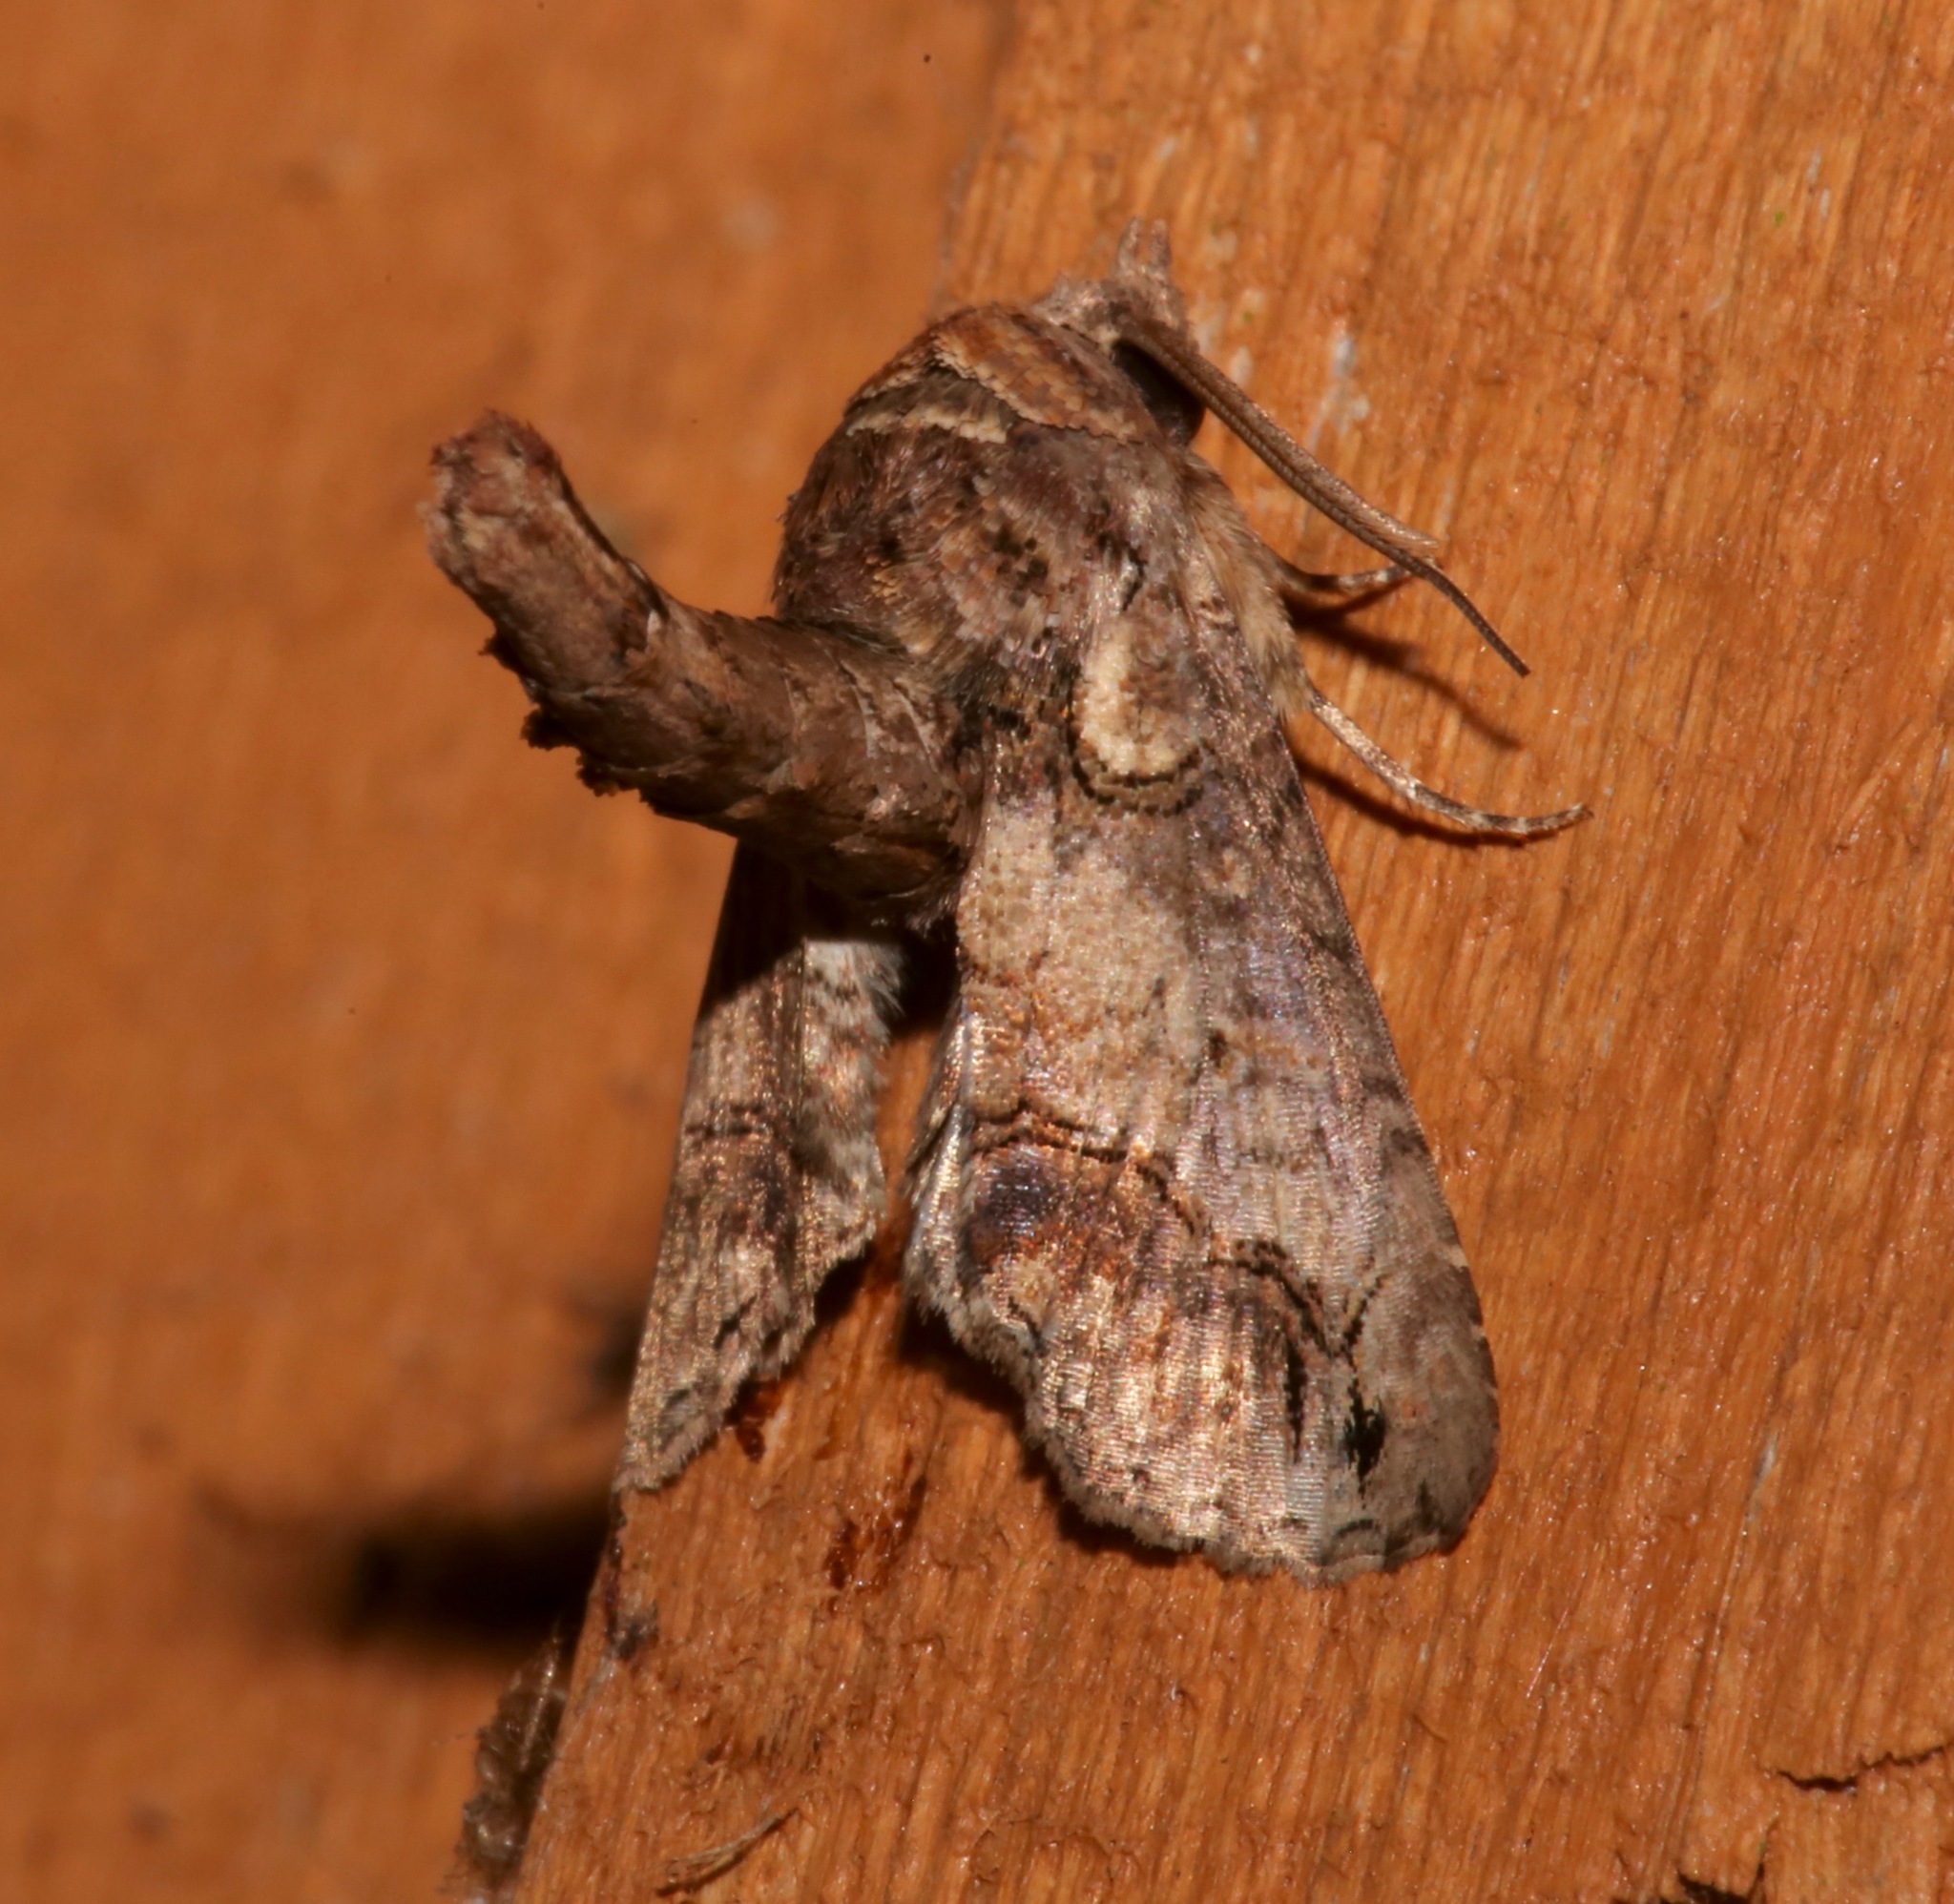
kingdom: Animalia
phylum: Arthropoda
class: Insecta
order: Lepidoptera
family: Euteliidae
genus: Paectes
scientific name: Paectes abrostoloides
